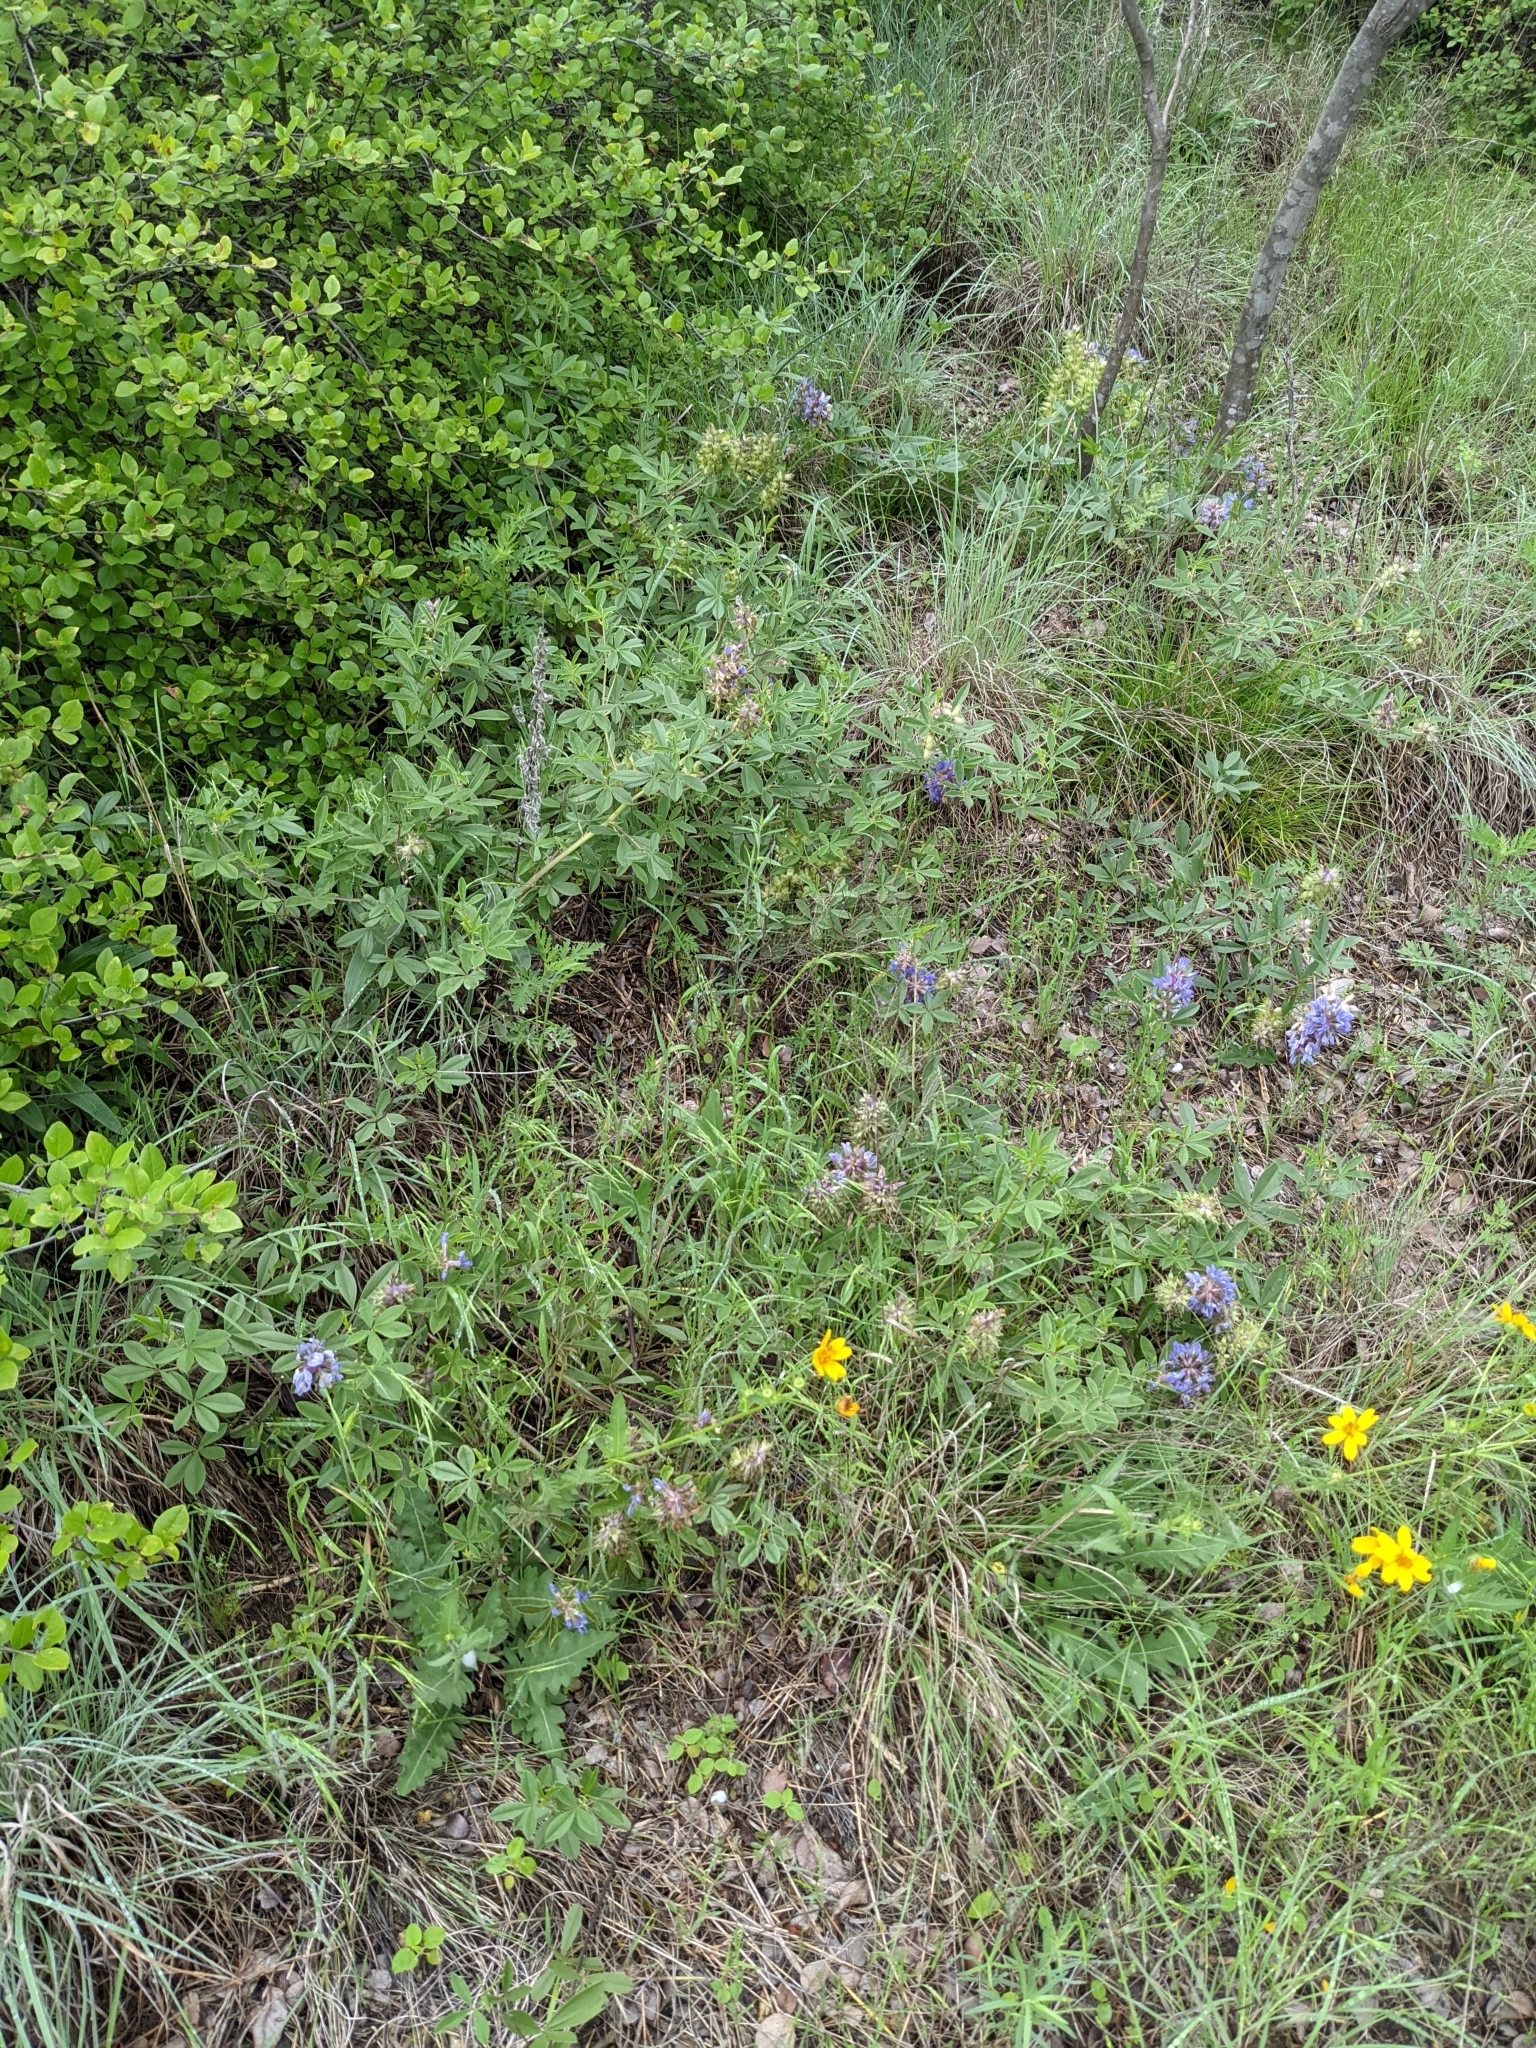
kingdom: Plantae
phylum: Tracheophyta
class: Magnoliopsida
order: Fabales
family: Fabaceae
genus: Pediomelum
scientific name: Pediomelum cuspidatum
